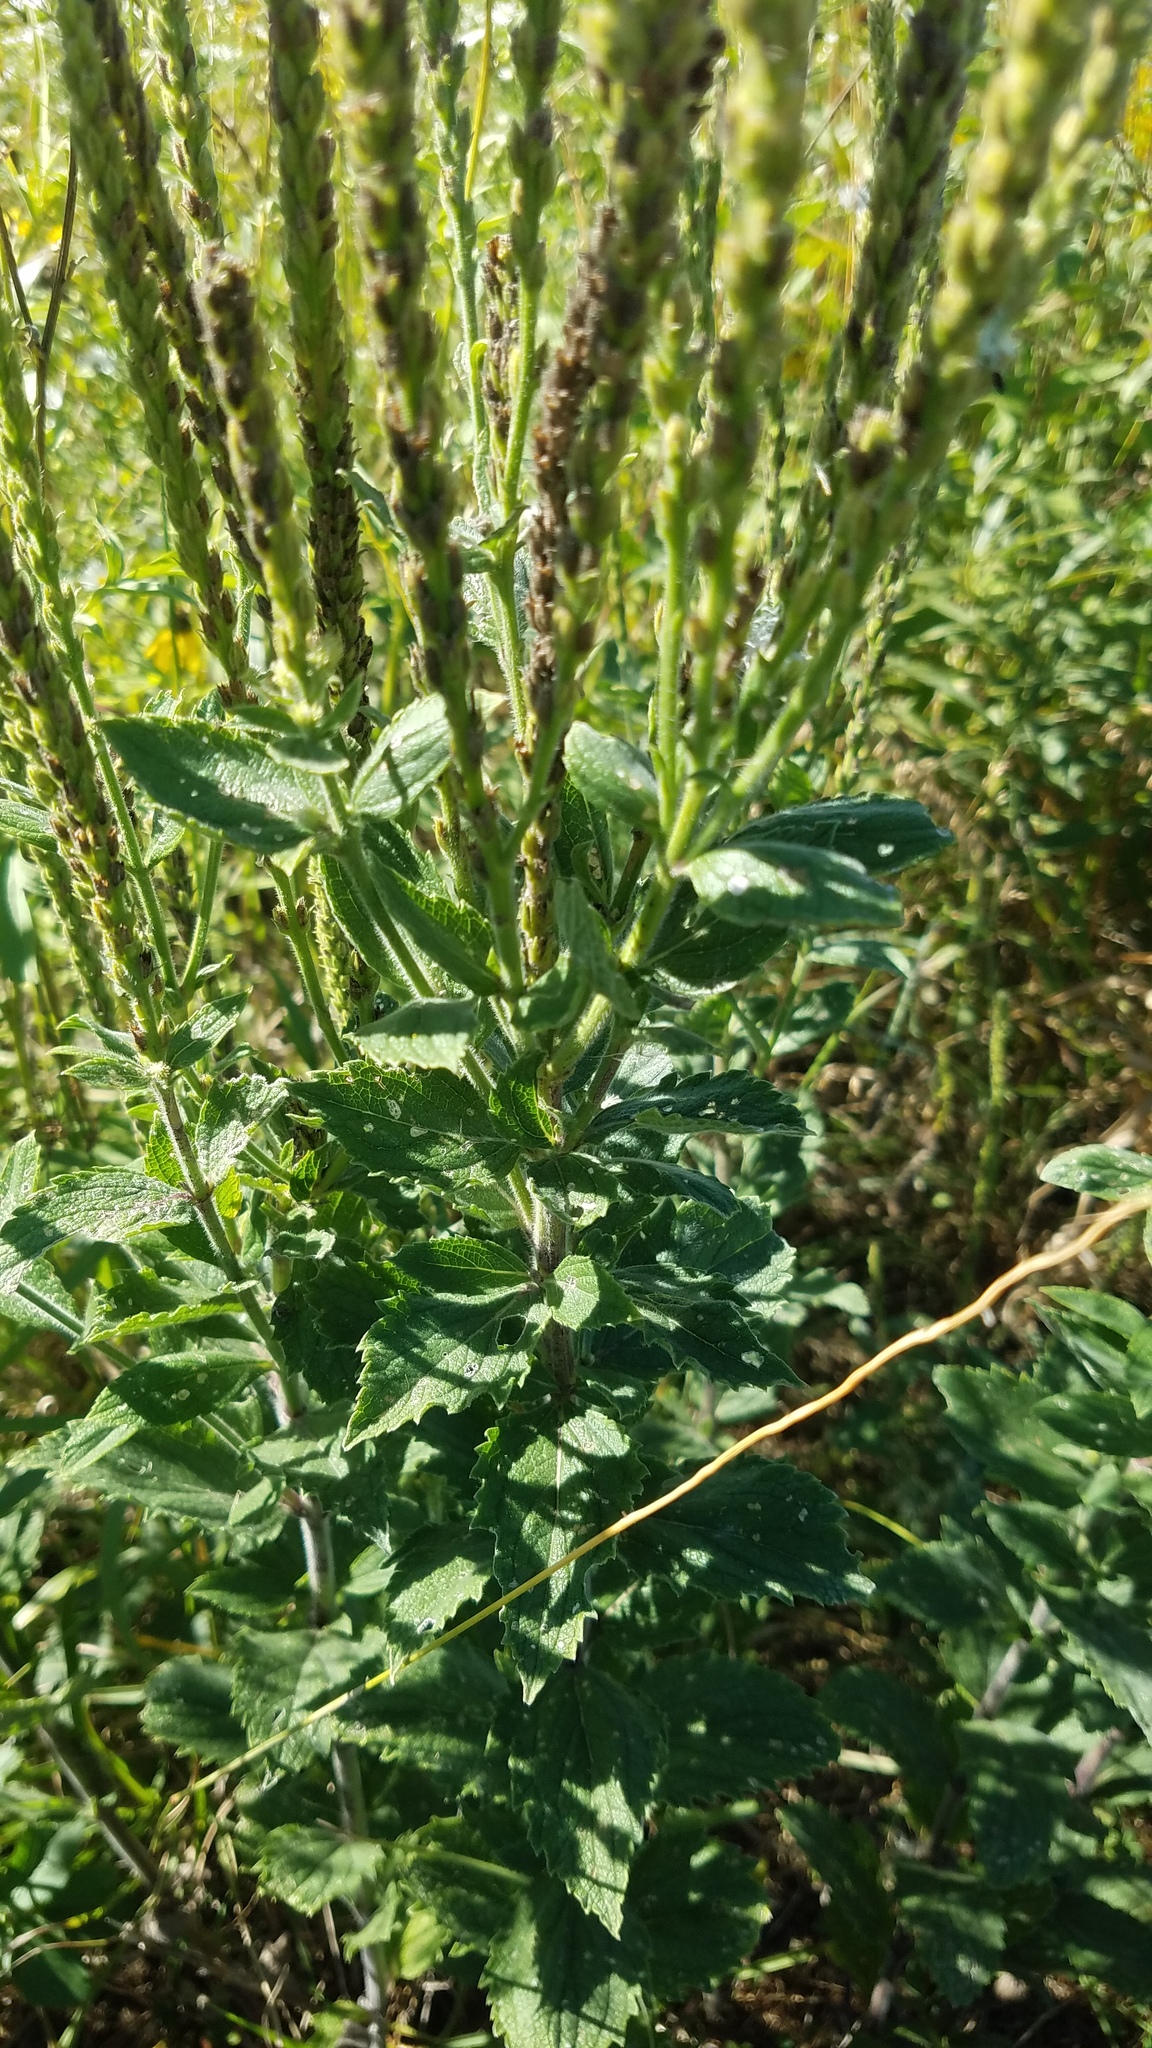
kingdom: Plantae
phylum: Tracheophyta
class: Magnoliopsida
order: Lamiales
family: Verbenaceae
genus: Verbena
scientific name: Verbena stricta
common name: Hoary vervain
